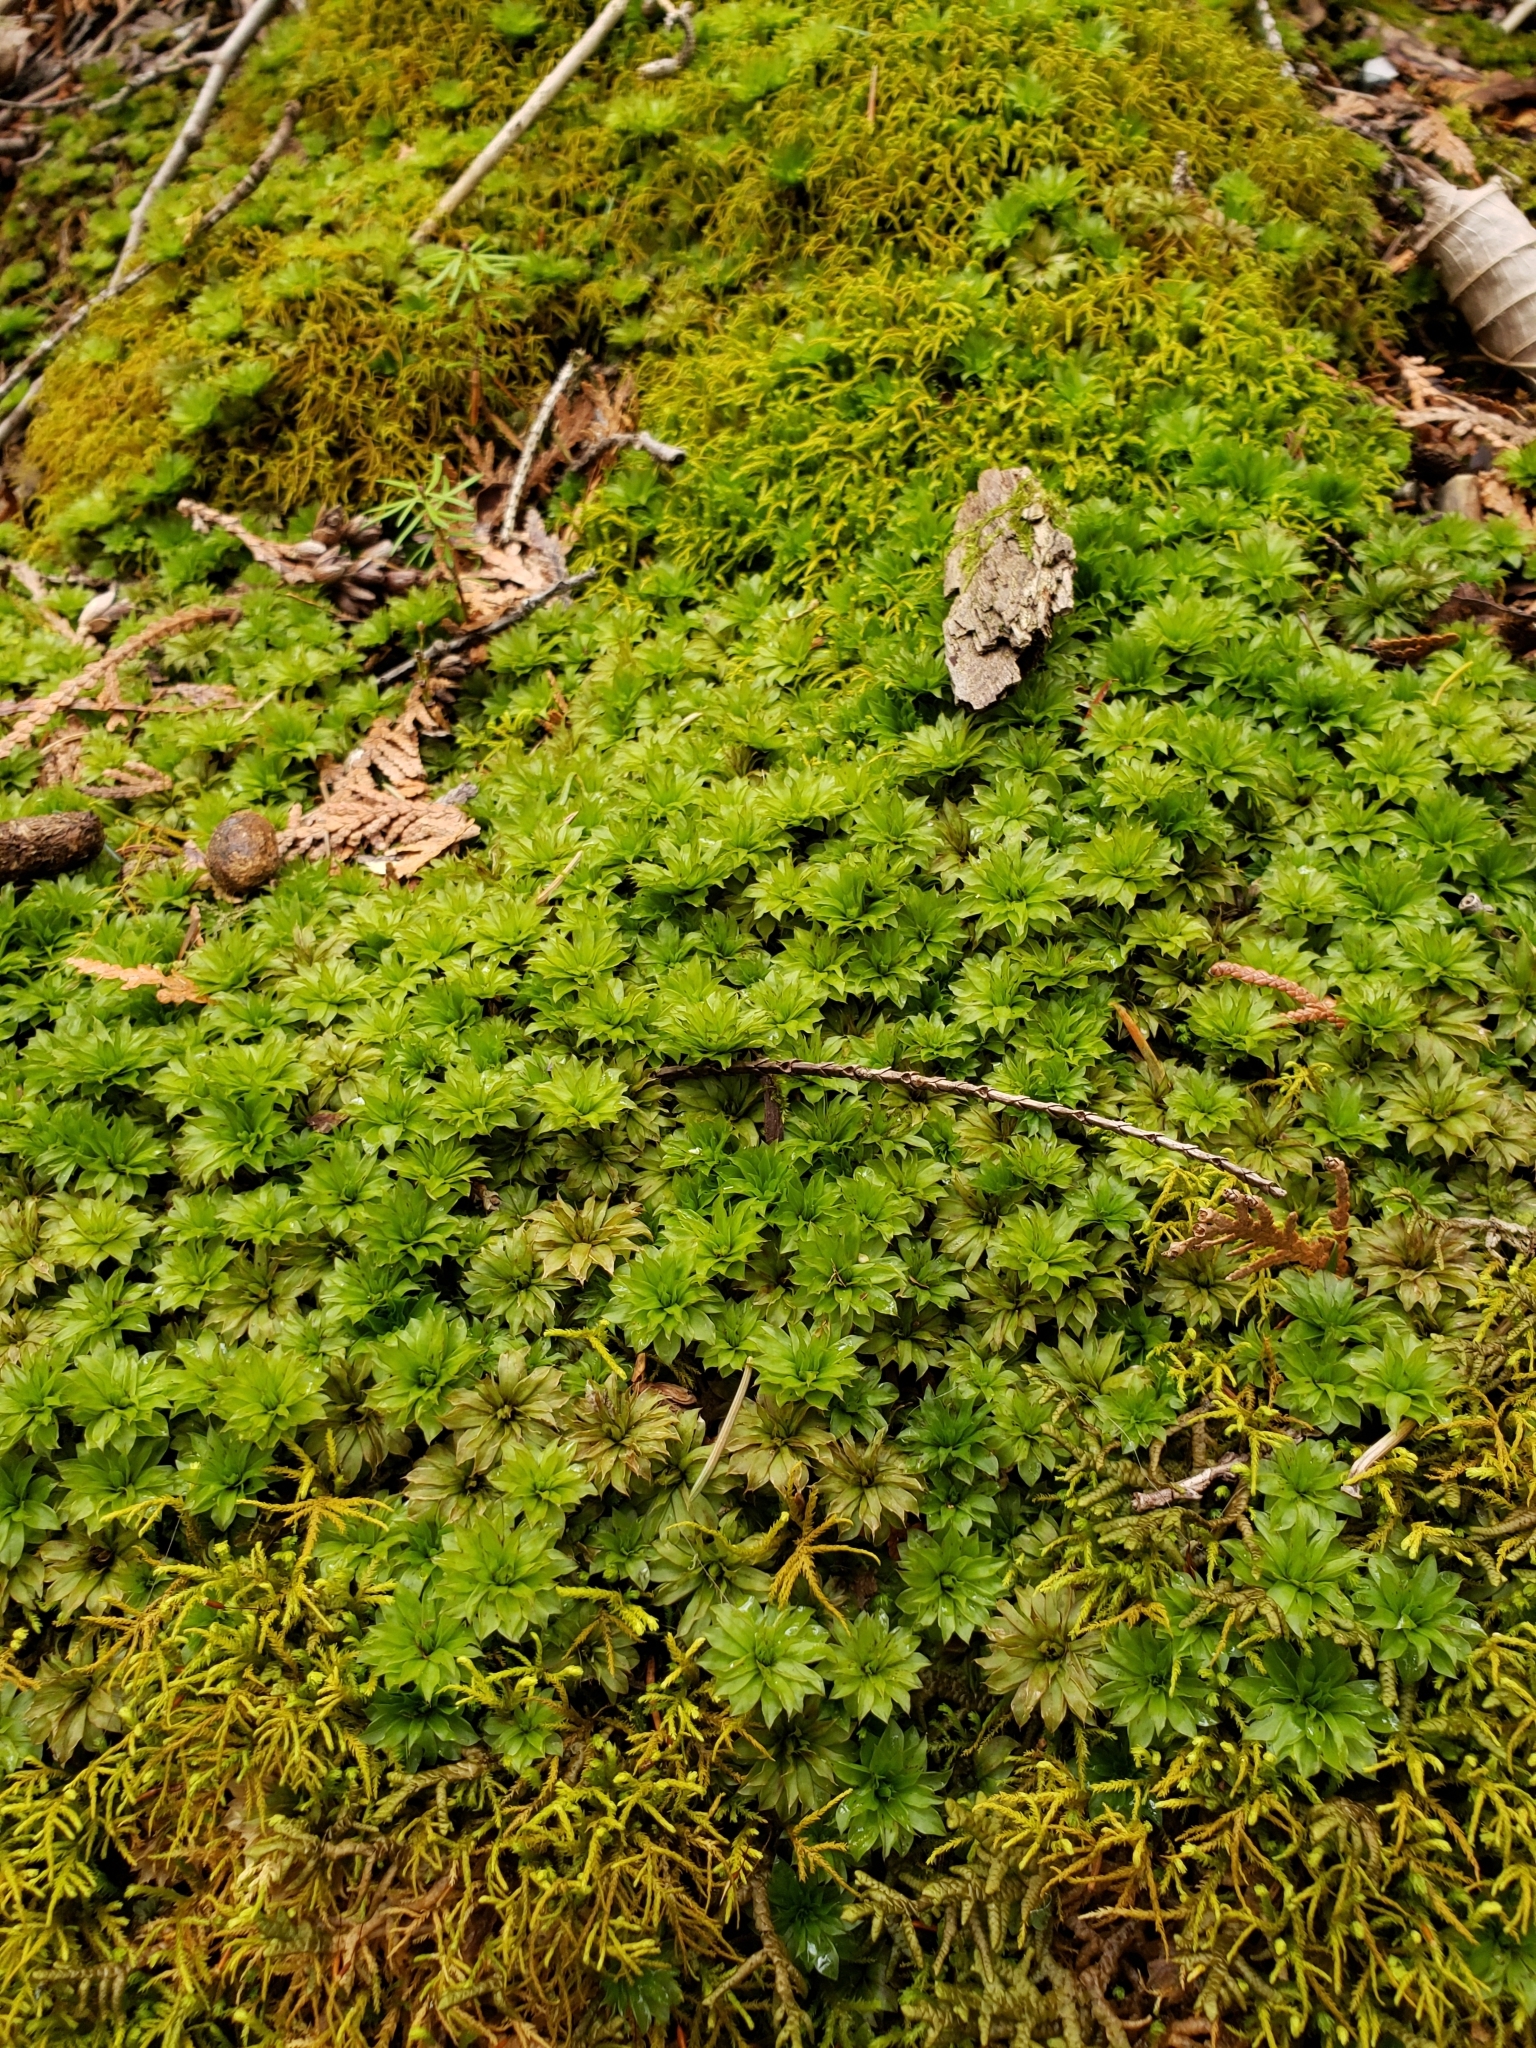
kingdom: Plantae
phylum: Bryophyta
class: Bryopsida
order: Bryales
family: Bryaceae
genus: Rhodobryum
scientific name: Rhodobryum ontariense
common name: Ontario rhodobryum moss
